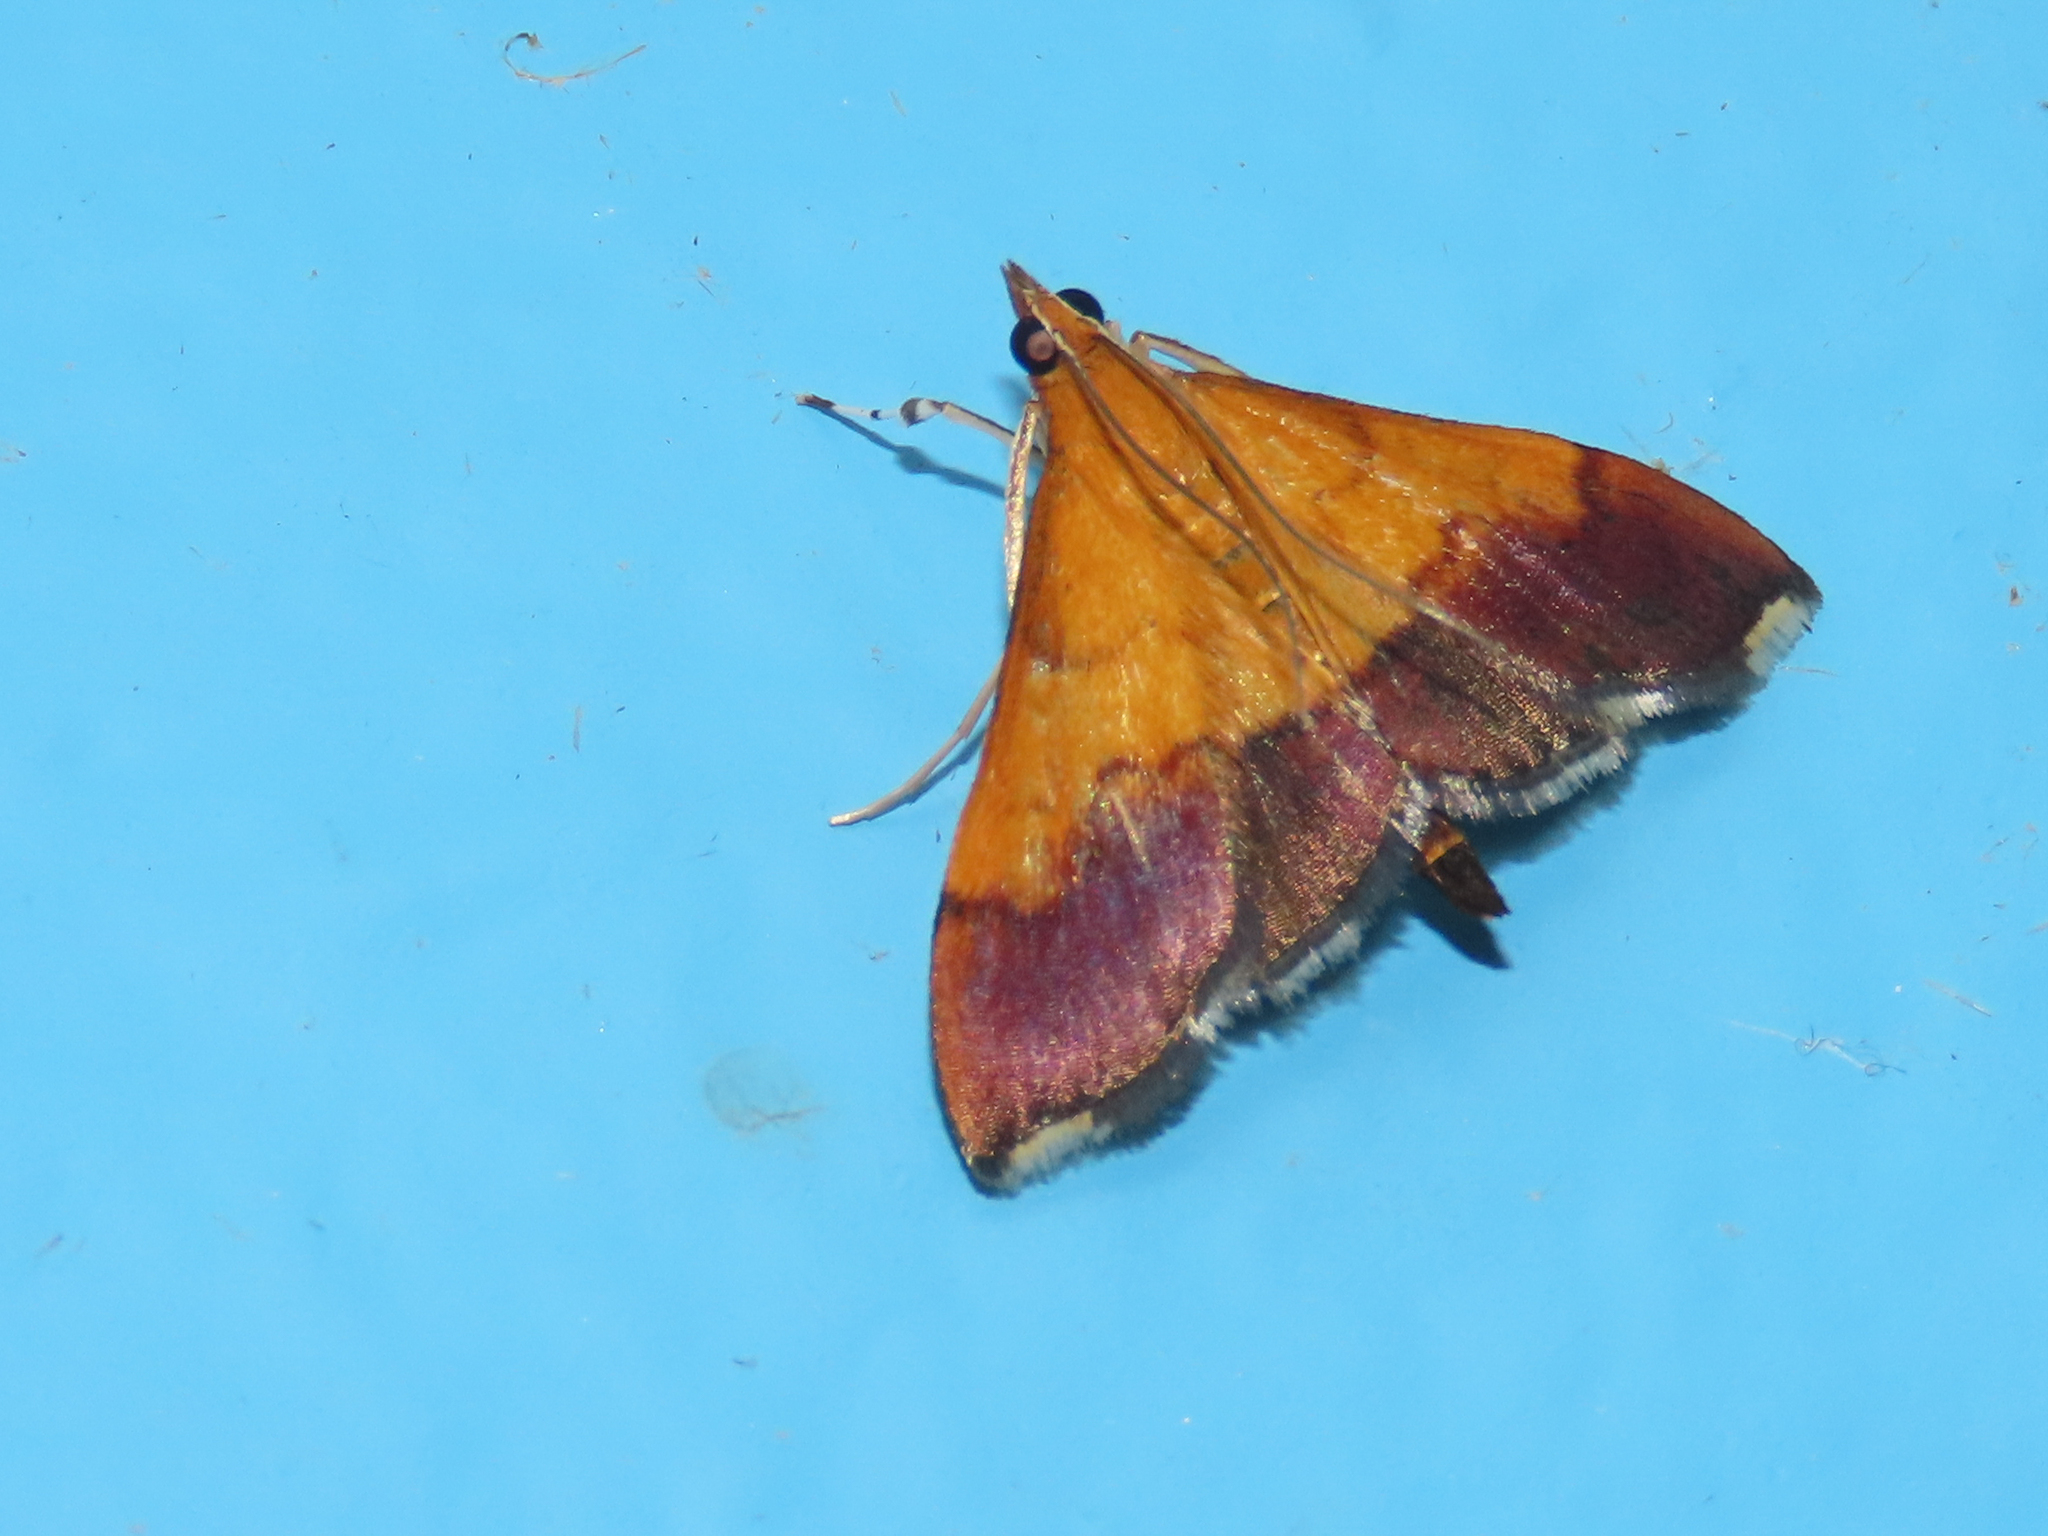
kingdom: Animalia
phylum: Arthropoda
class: Insecta
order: Lepidoptera
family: Crambidae
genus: Pyrausta
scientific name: Pyrausta bicoloralis
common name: Bicolored pyrausta moth
